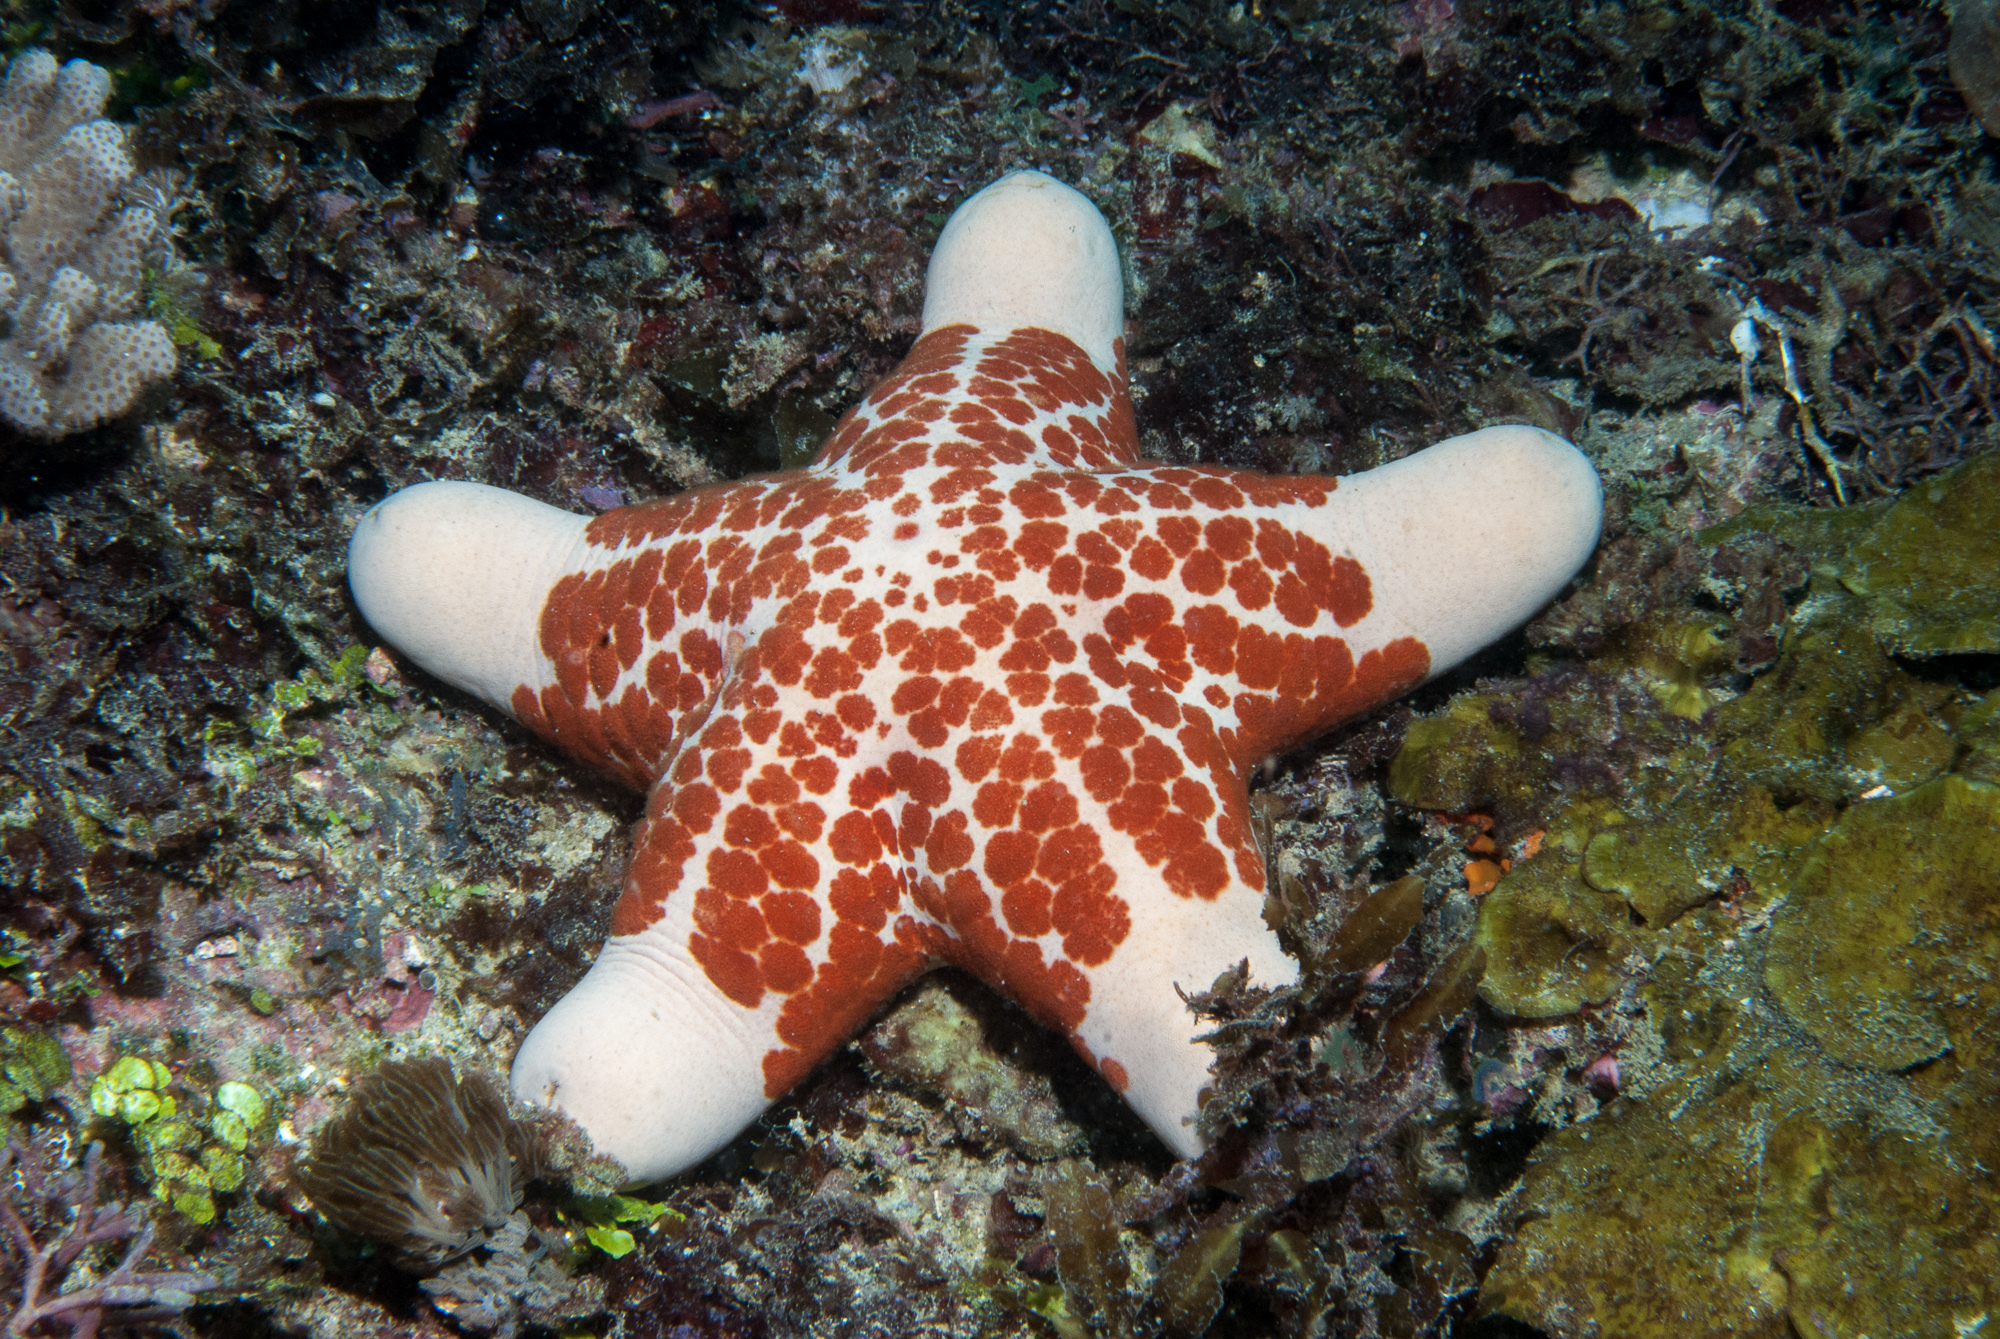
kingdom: Animalia
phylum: Echinodermata
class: Asteroidea
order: Valvatida
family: Oreasteridae
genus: Choriaster
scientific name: Choriaster granulatus
